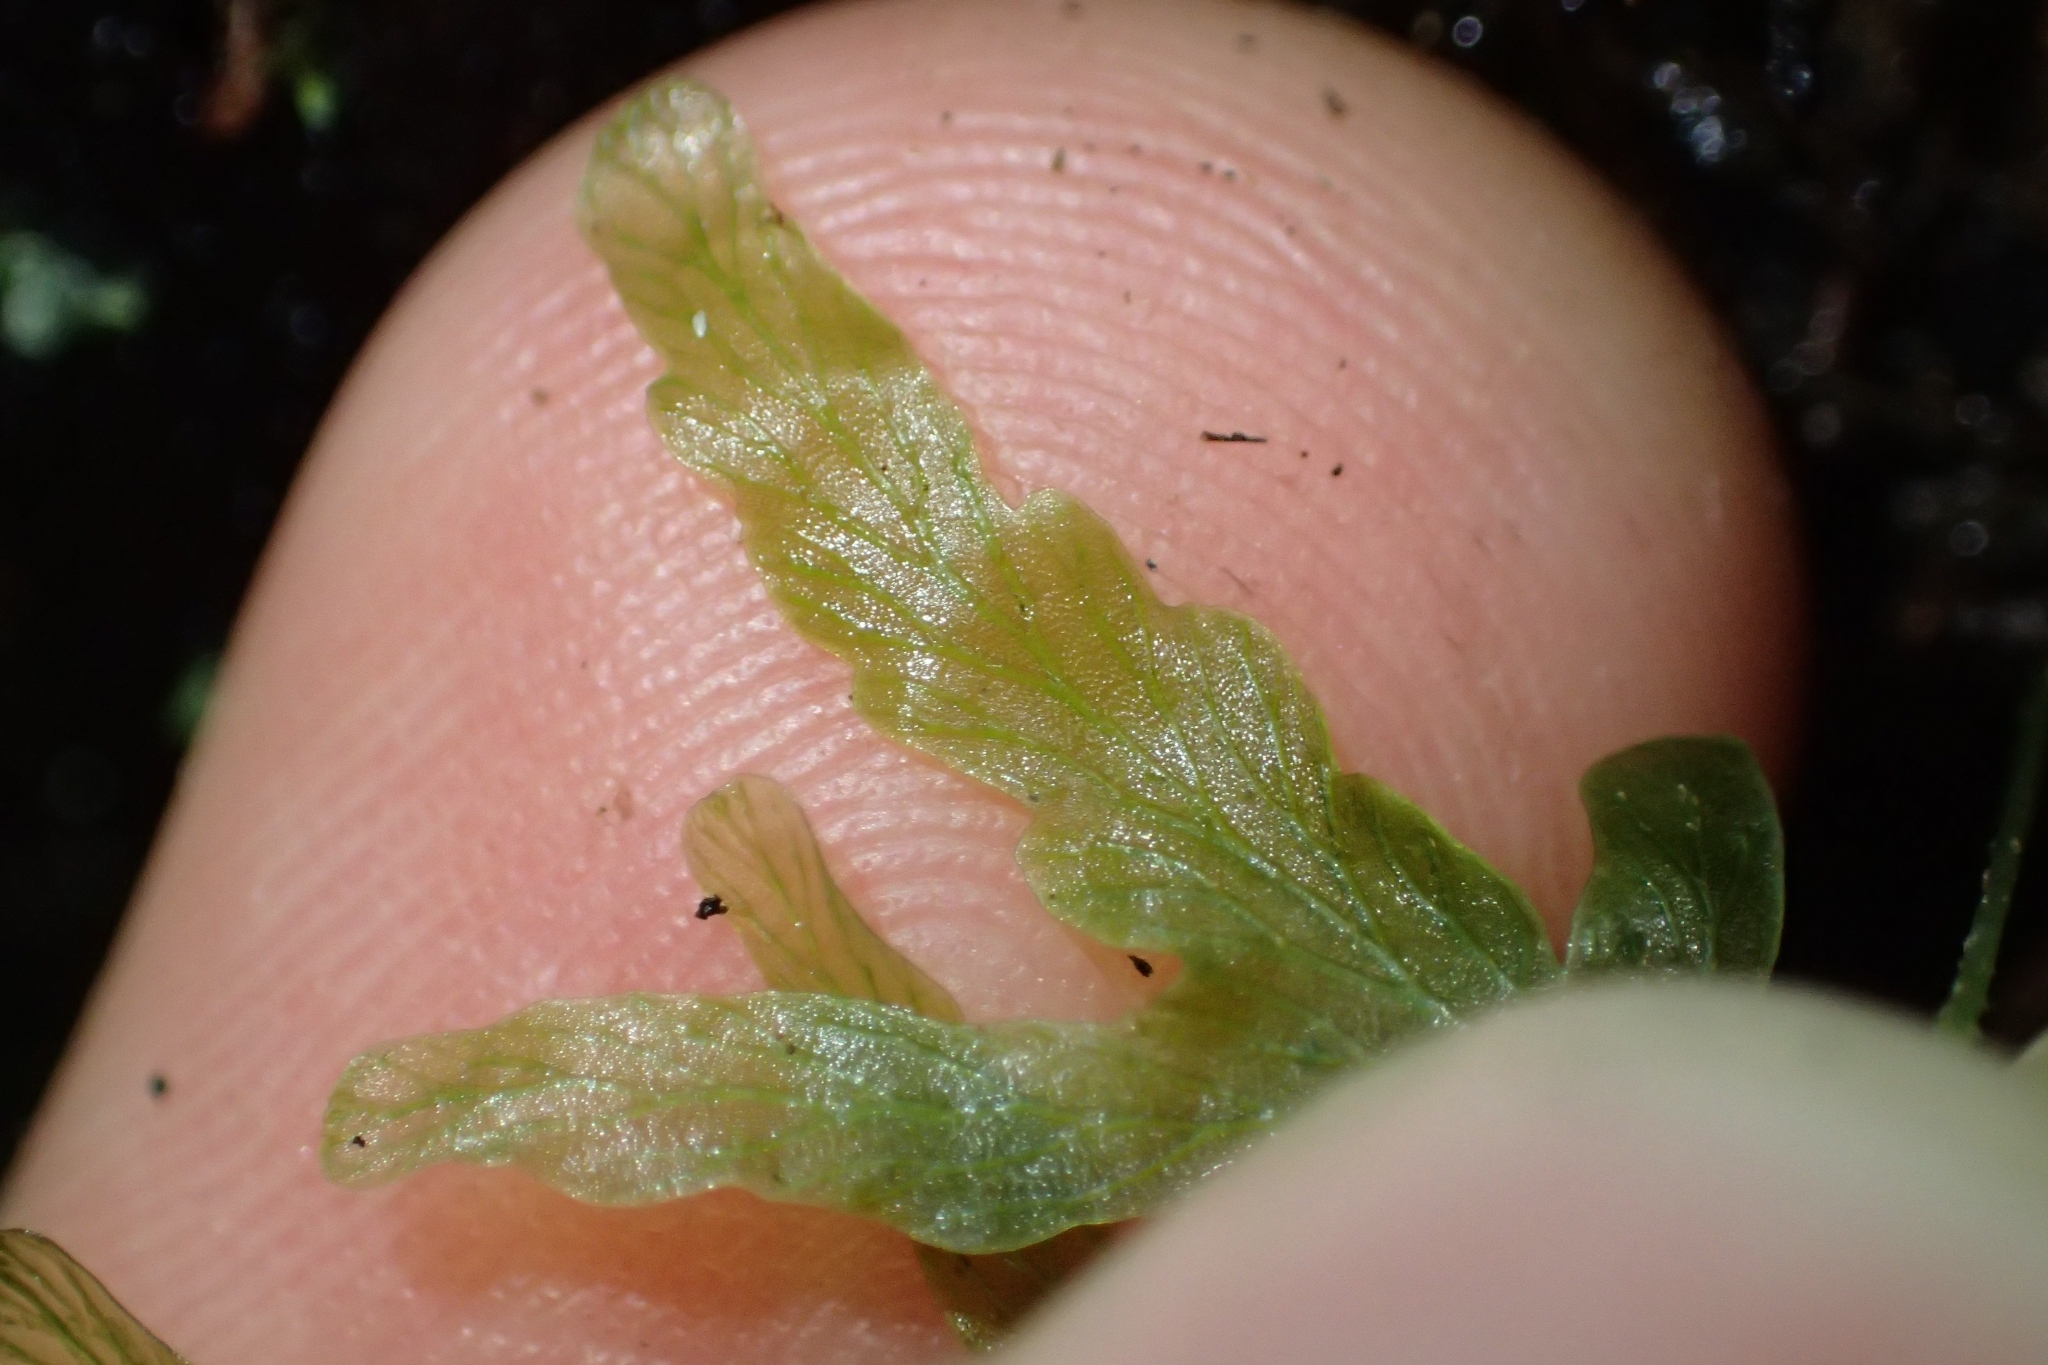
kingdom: Plantae
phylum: Tracheophyta
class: Polypodiopsida
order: Hymenophyllales
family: Hymenophyllaceae
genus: Polyphlebium
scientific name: Polyphlebium venosum
